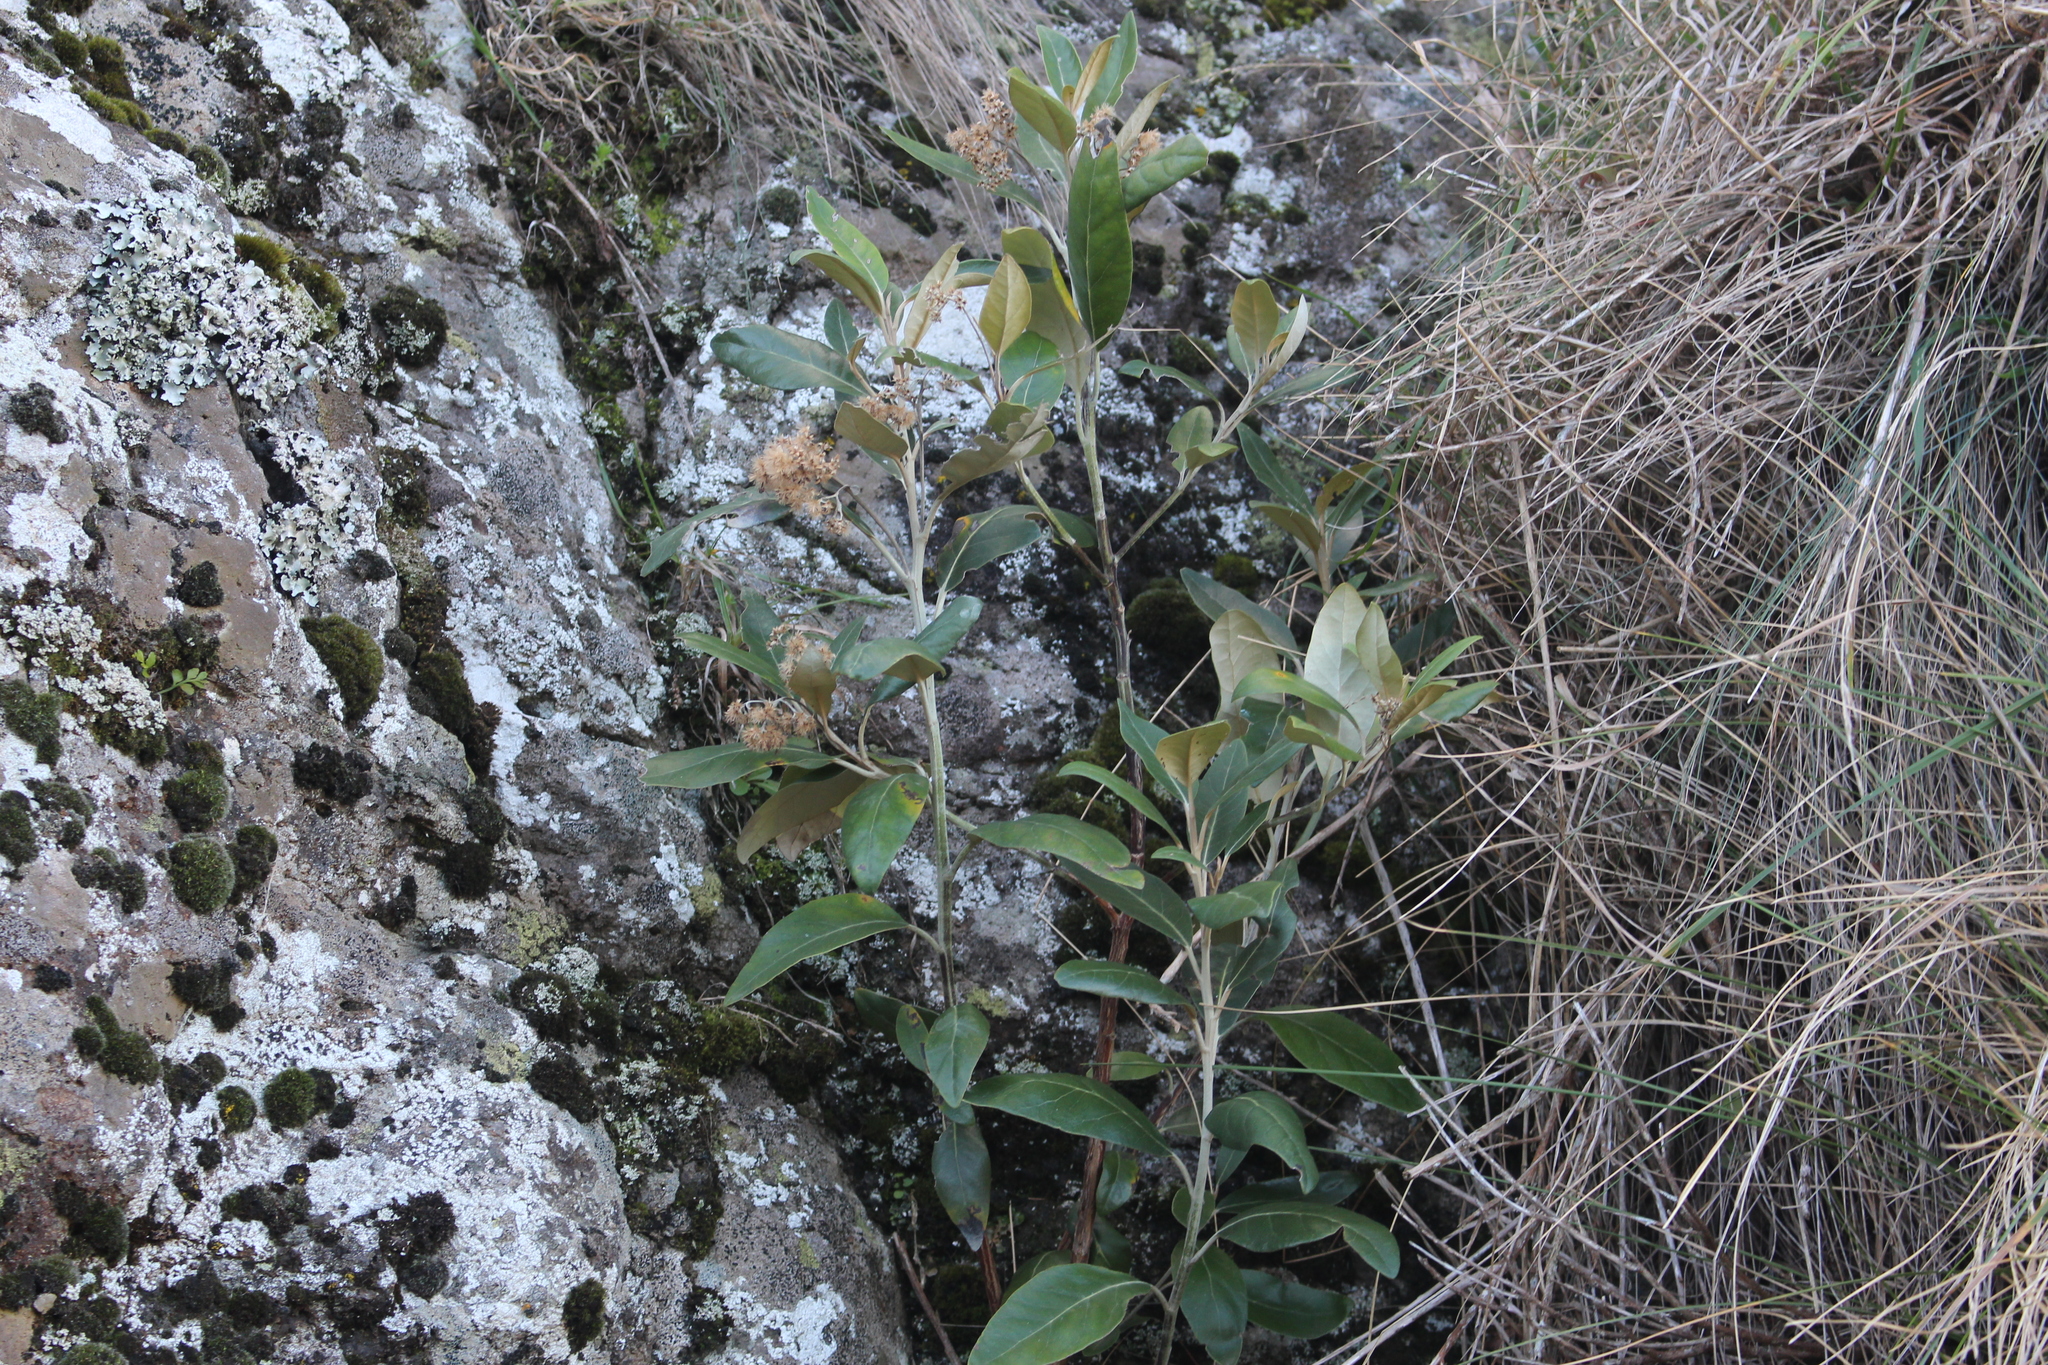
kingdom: Plantae
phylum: Tracheophyta
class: Magnoliopsida
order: Asterales
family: Asteraceae
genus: Olearia
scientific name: Olearia avicenniifolia
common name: Mangrove-leaf daisybush
